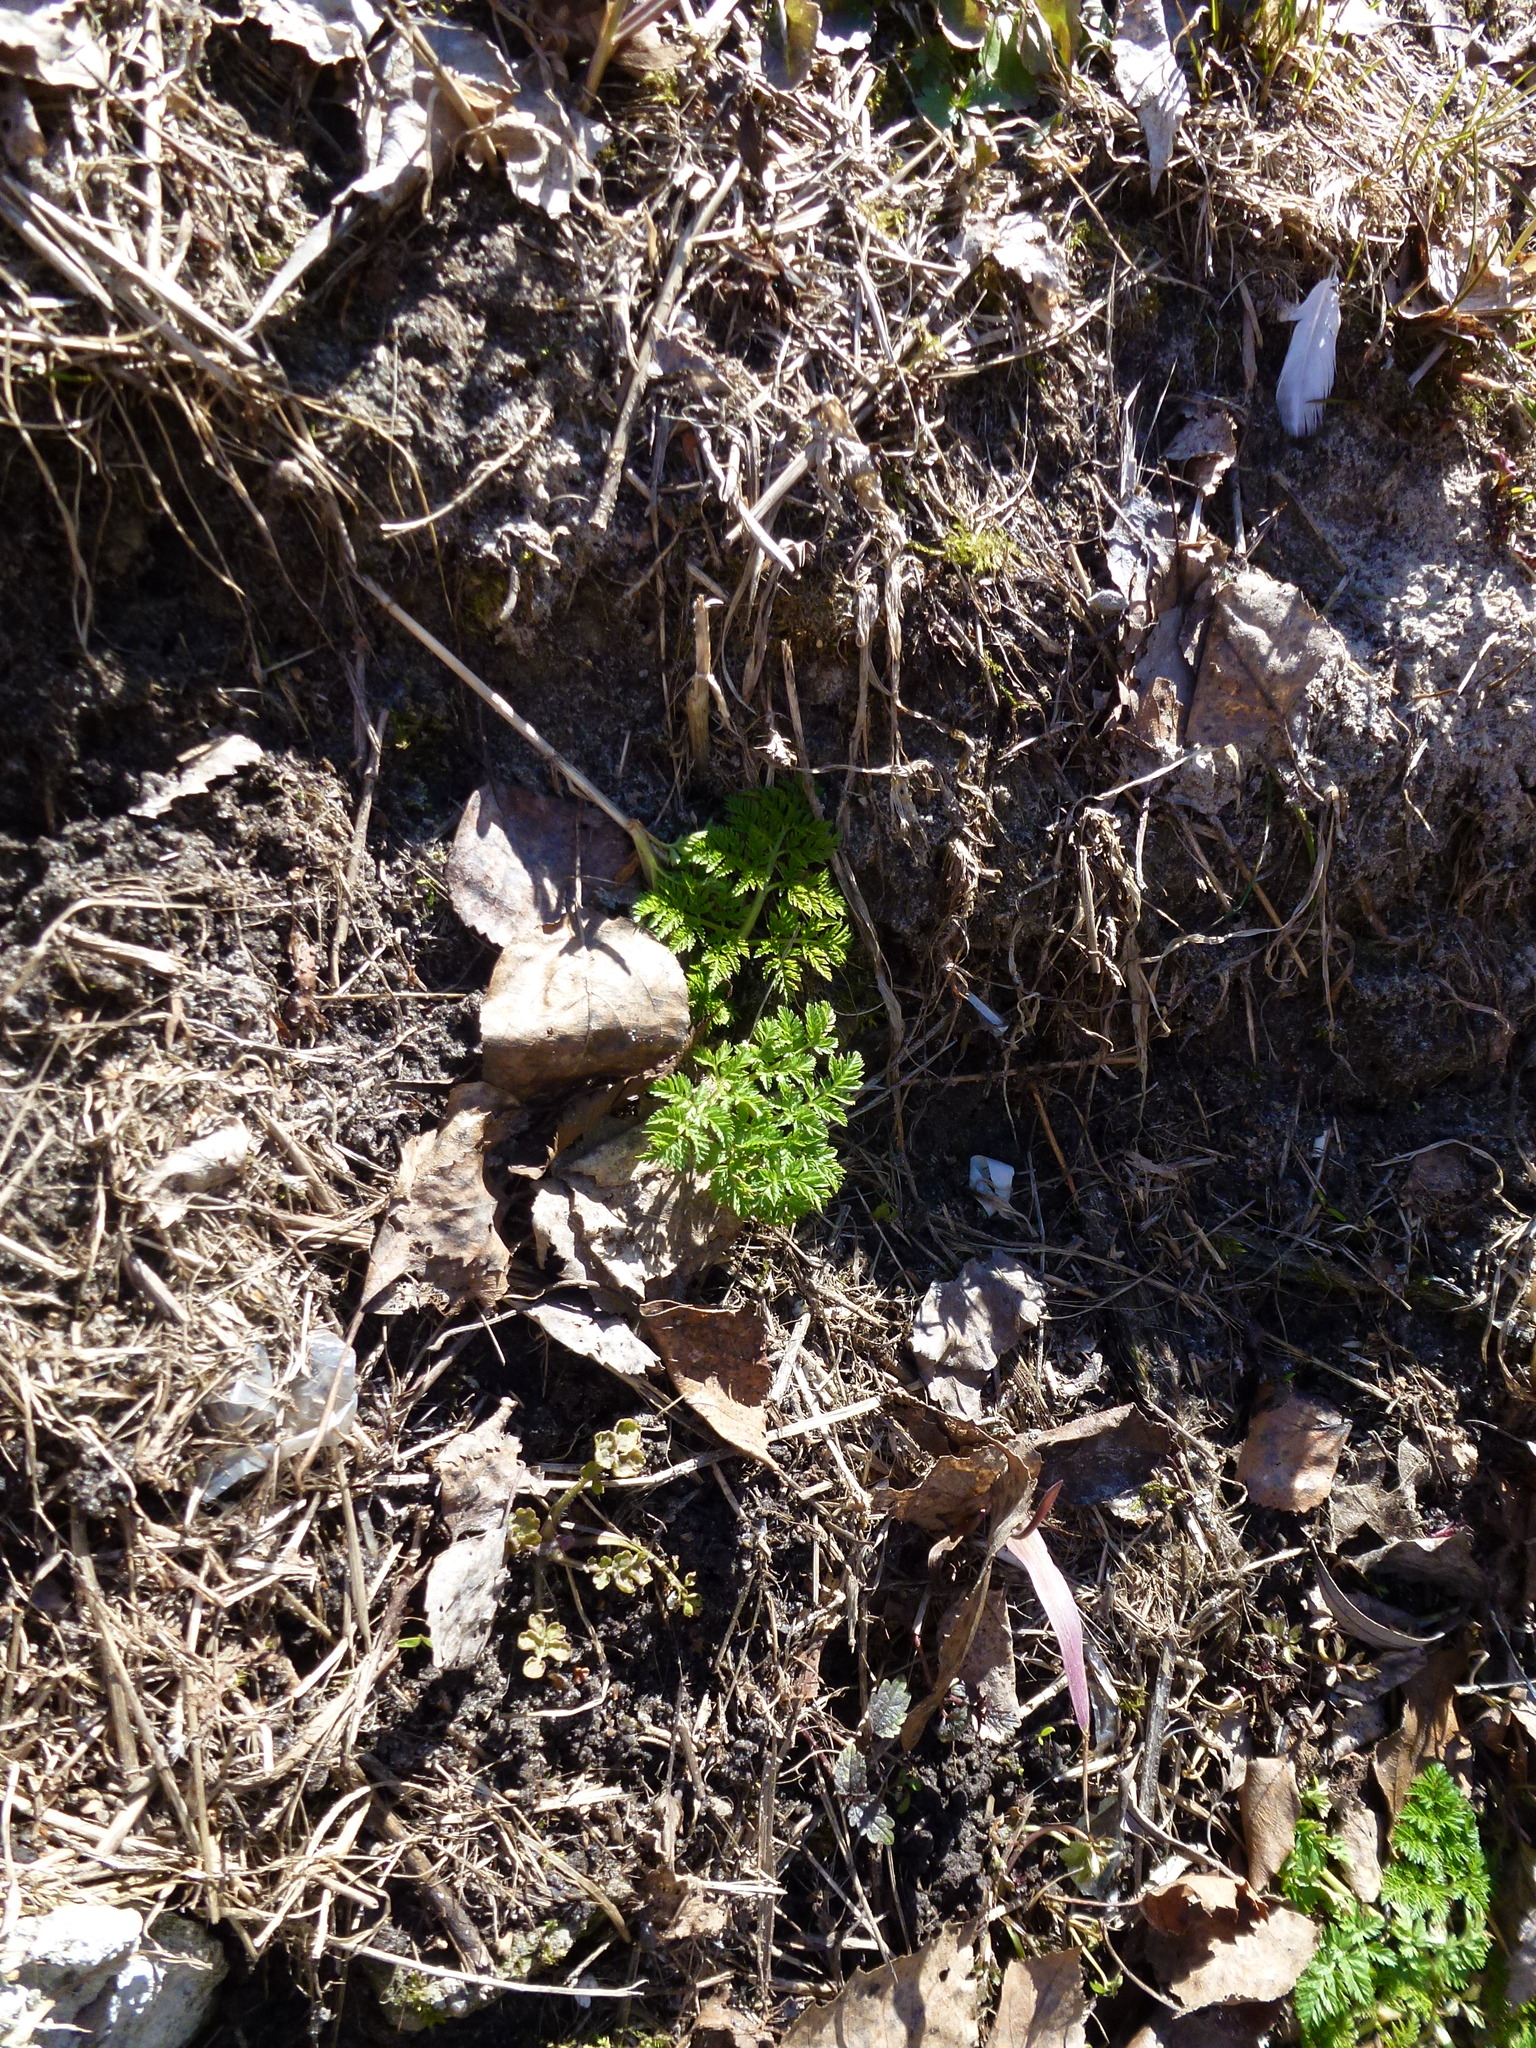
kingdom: Plantae
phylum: Tracheophyta
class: Magnoliopsida
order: Apiales
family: Apiaceae
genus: Anthriscus
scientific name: Anthriscus sylvestris
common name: Cow parsley
